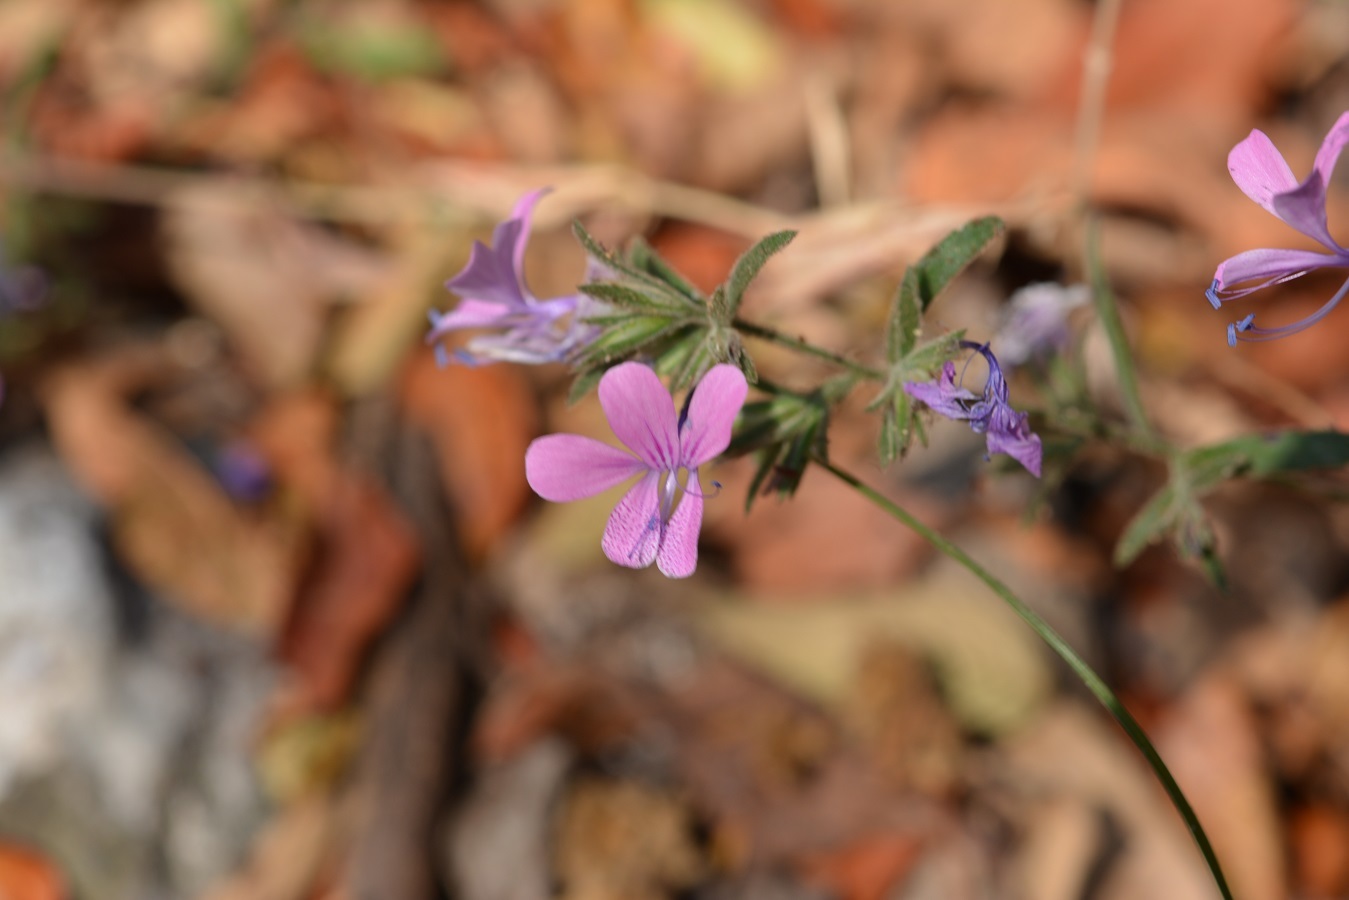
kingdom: Plantae
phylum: Tracheophyta
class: Magnoliopsida
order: Ericales
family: Polemoniaceae
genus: Loeselia
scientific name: Loeselia glandulosa
